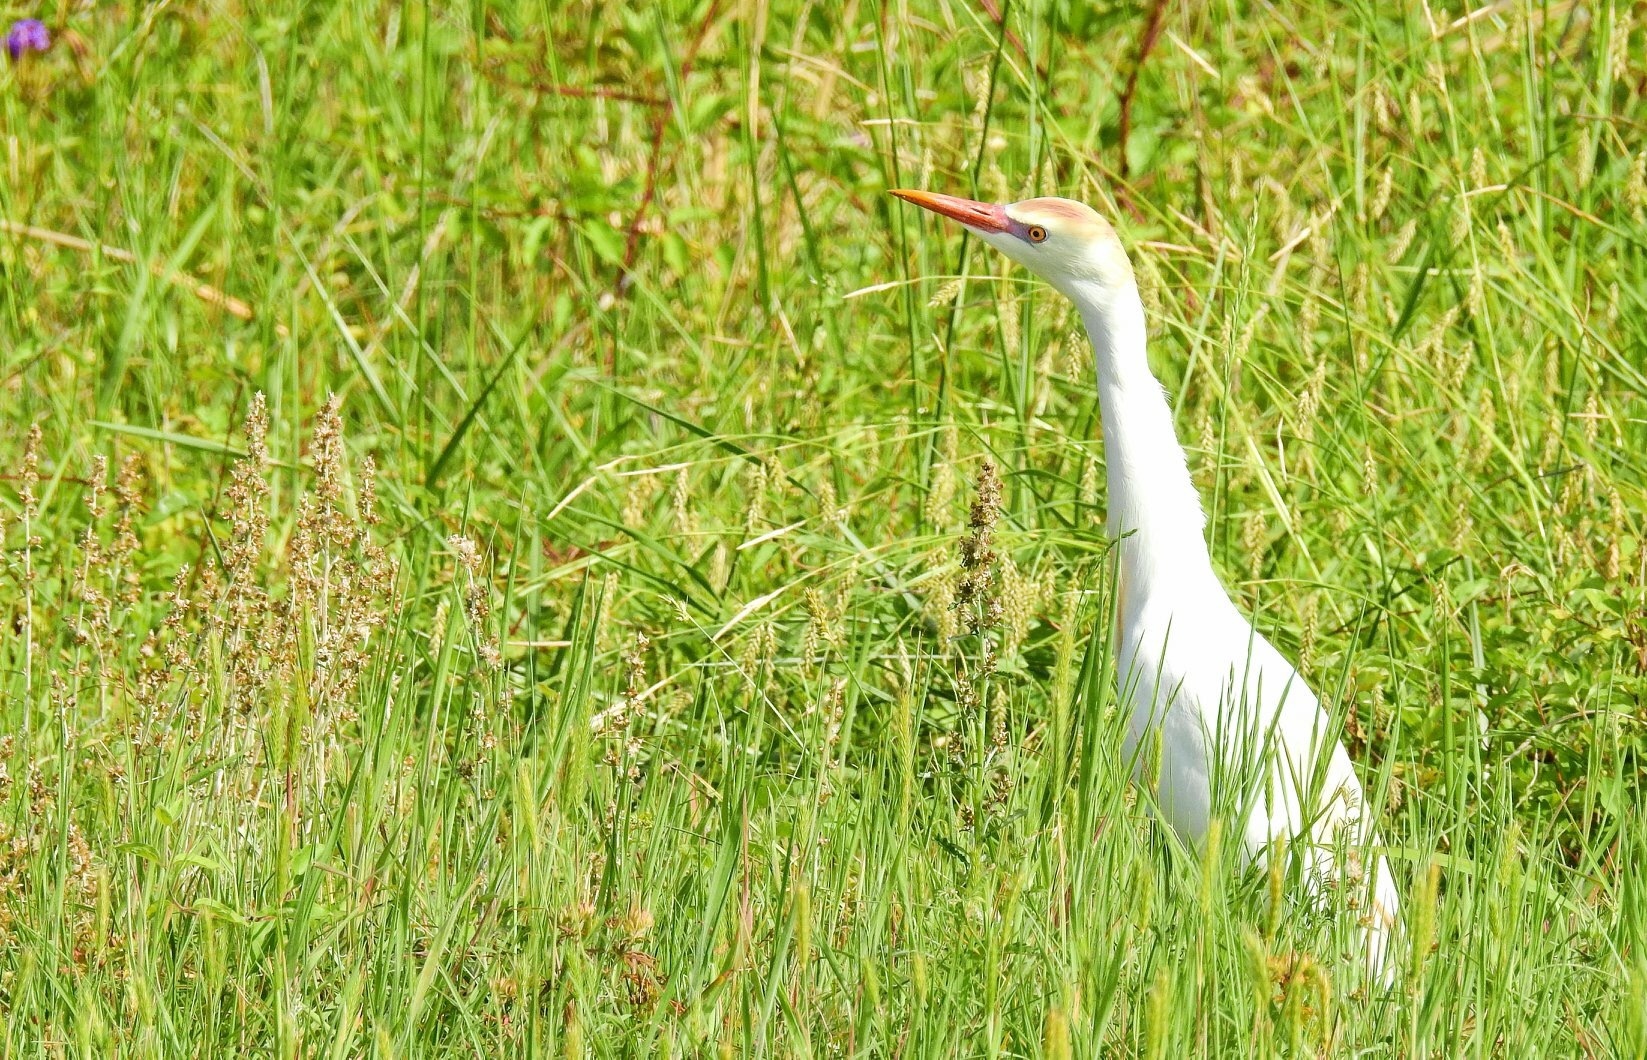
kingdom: Animalia
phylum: Chordata
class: Aves
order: Pelecaniformes
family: Ardeidae
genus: Bubulcus
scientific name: Bubulcus ibis
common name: Cattle egret
